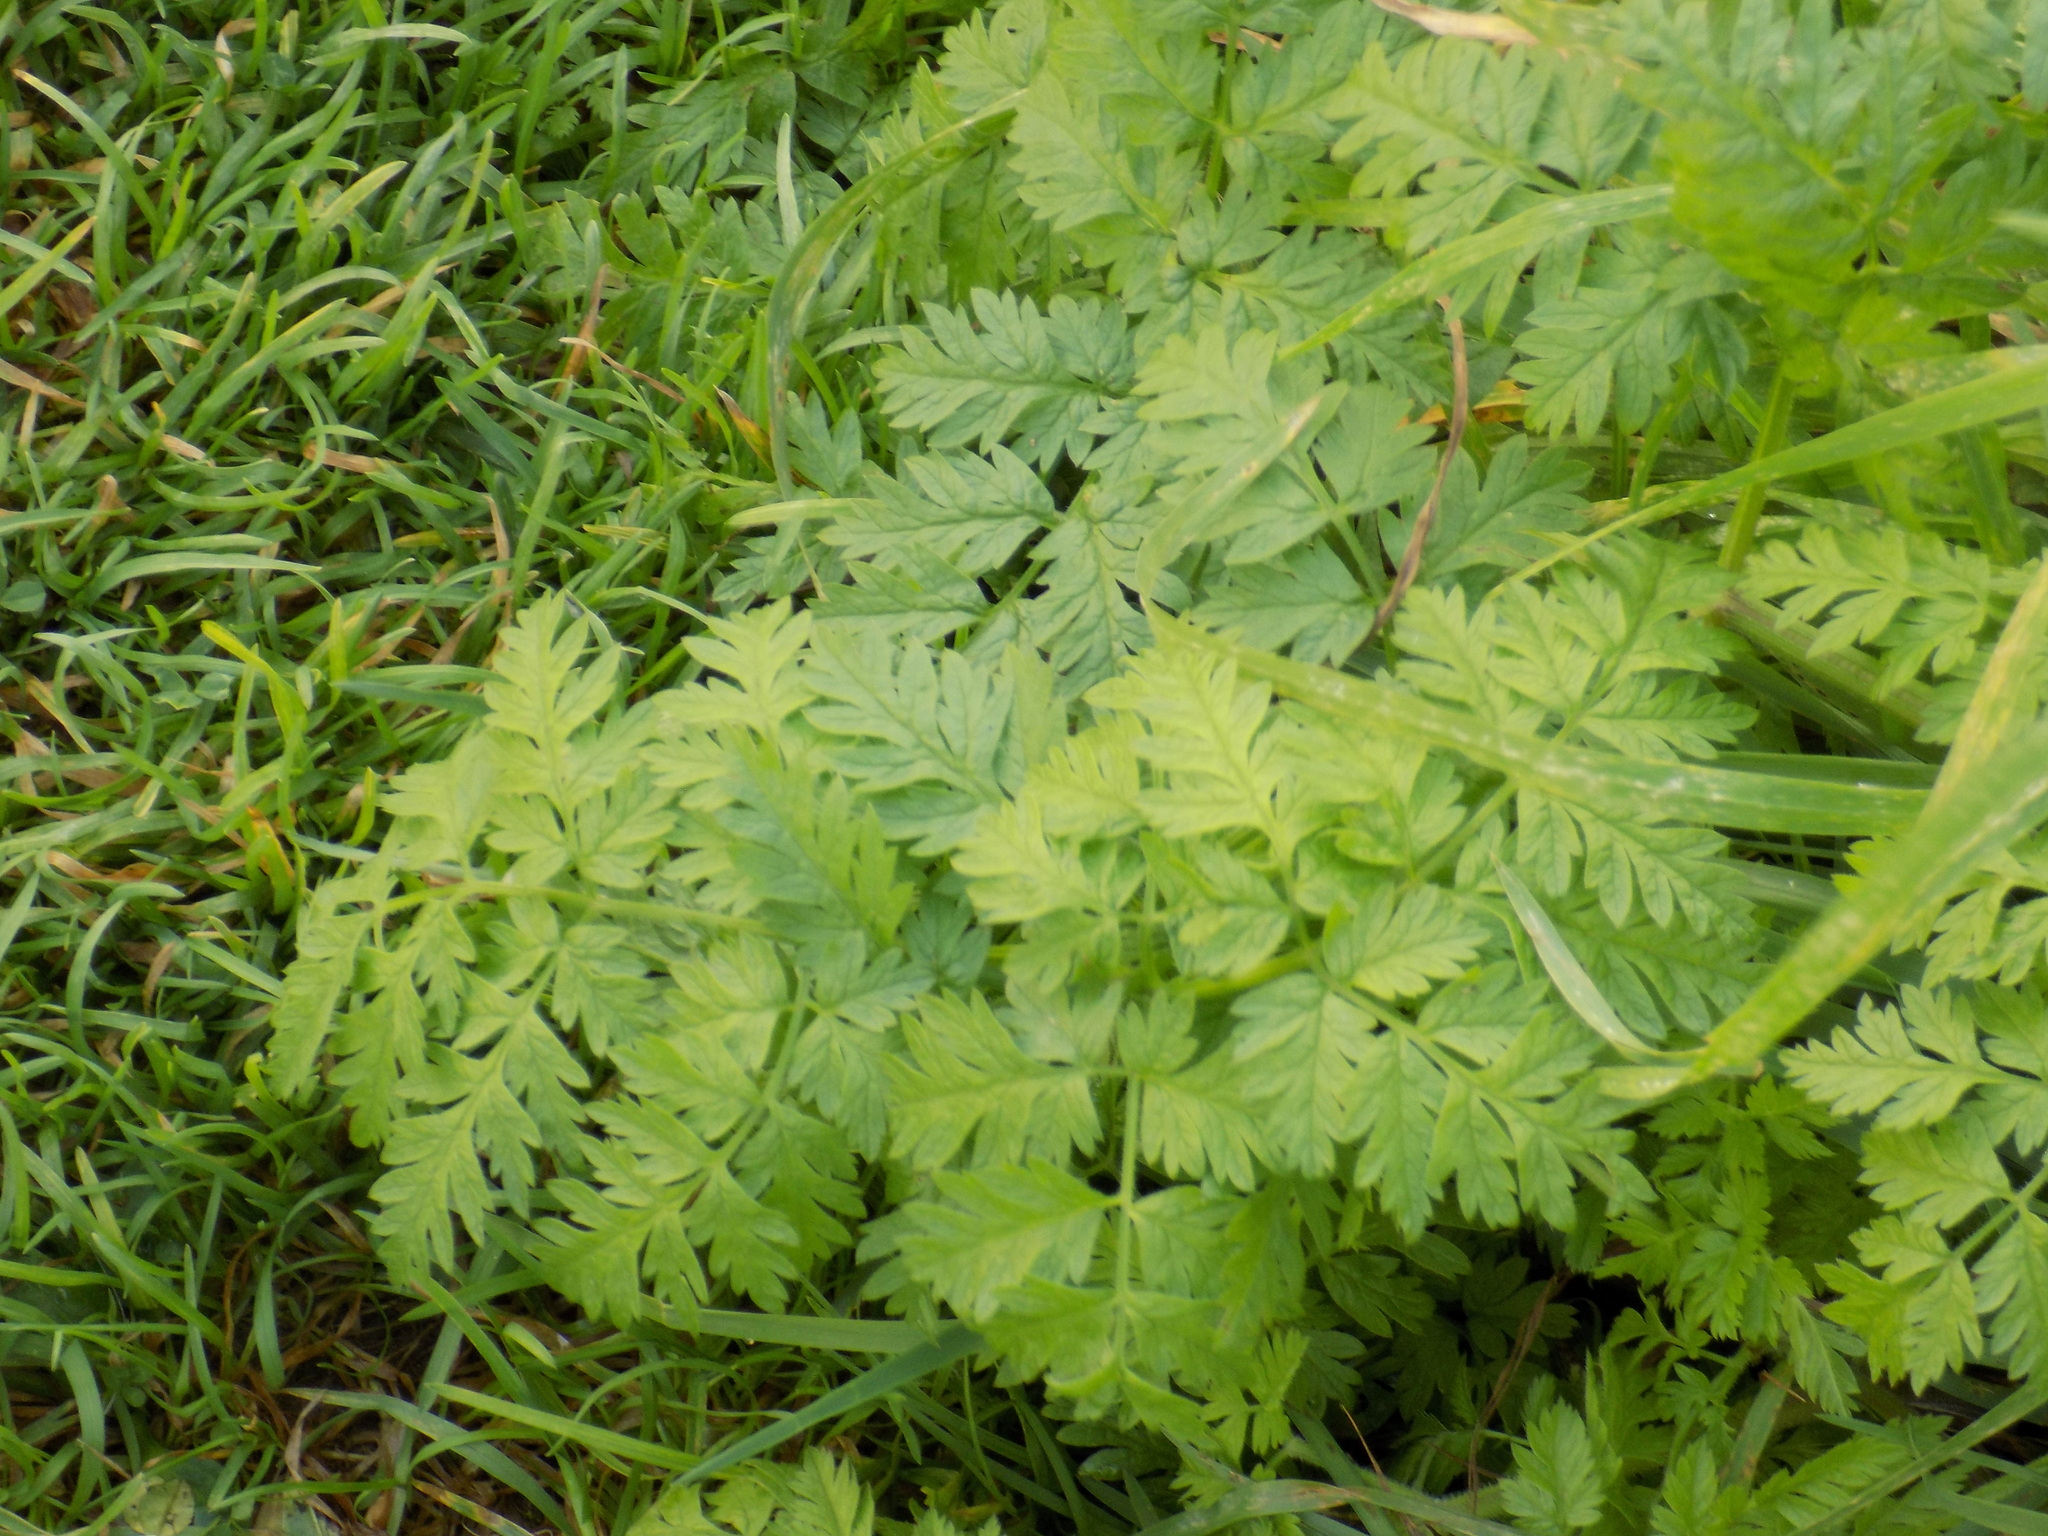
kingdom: Plantae
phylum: Tracheophyta
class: Magnoliopsida
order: Apiales
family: Apiaceae
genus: Anthriscus
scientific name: Anthriscus sylvestris
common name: Cow parsley
